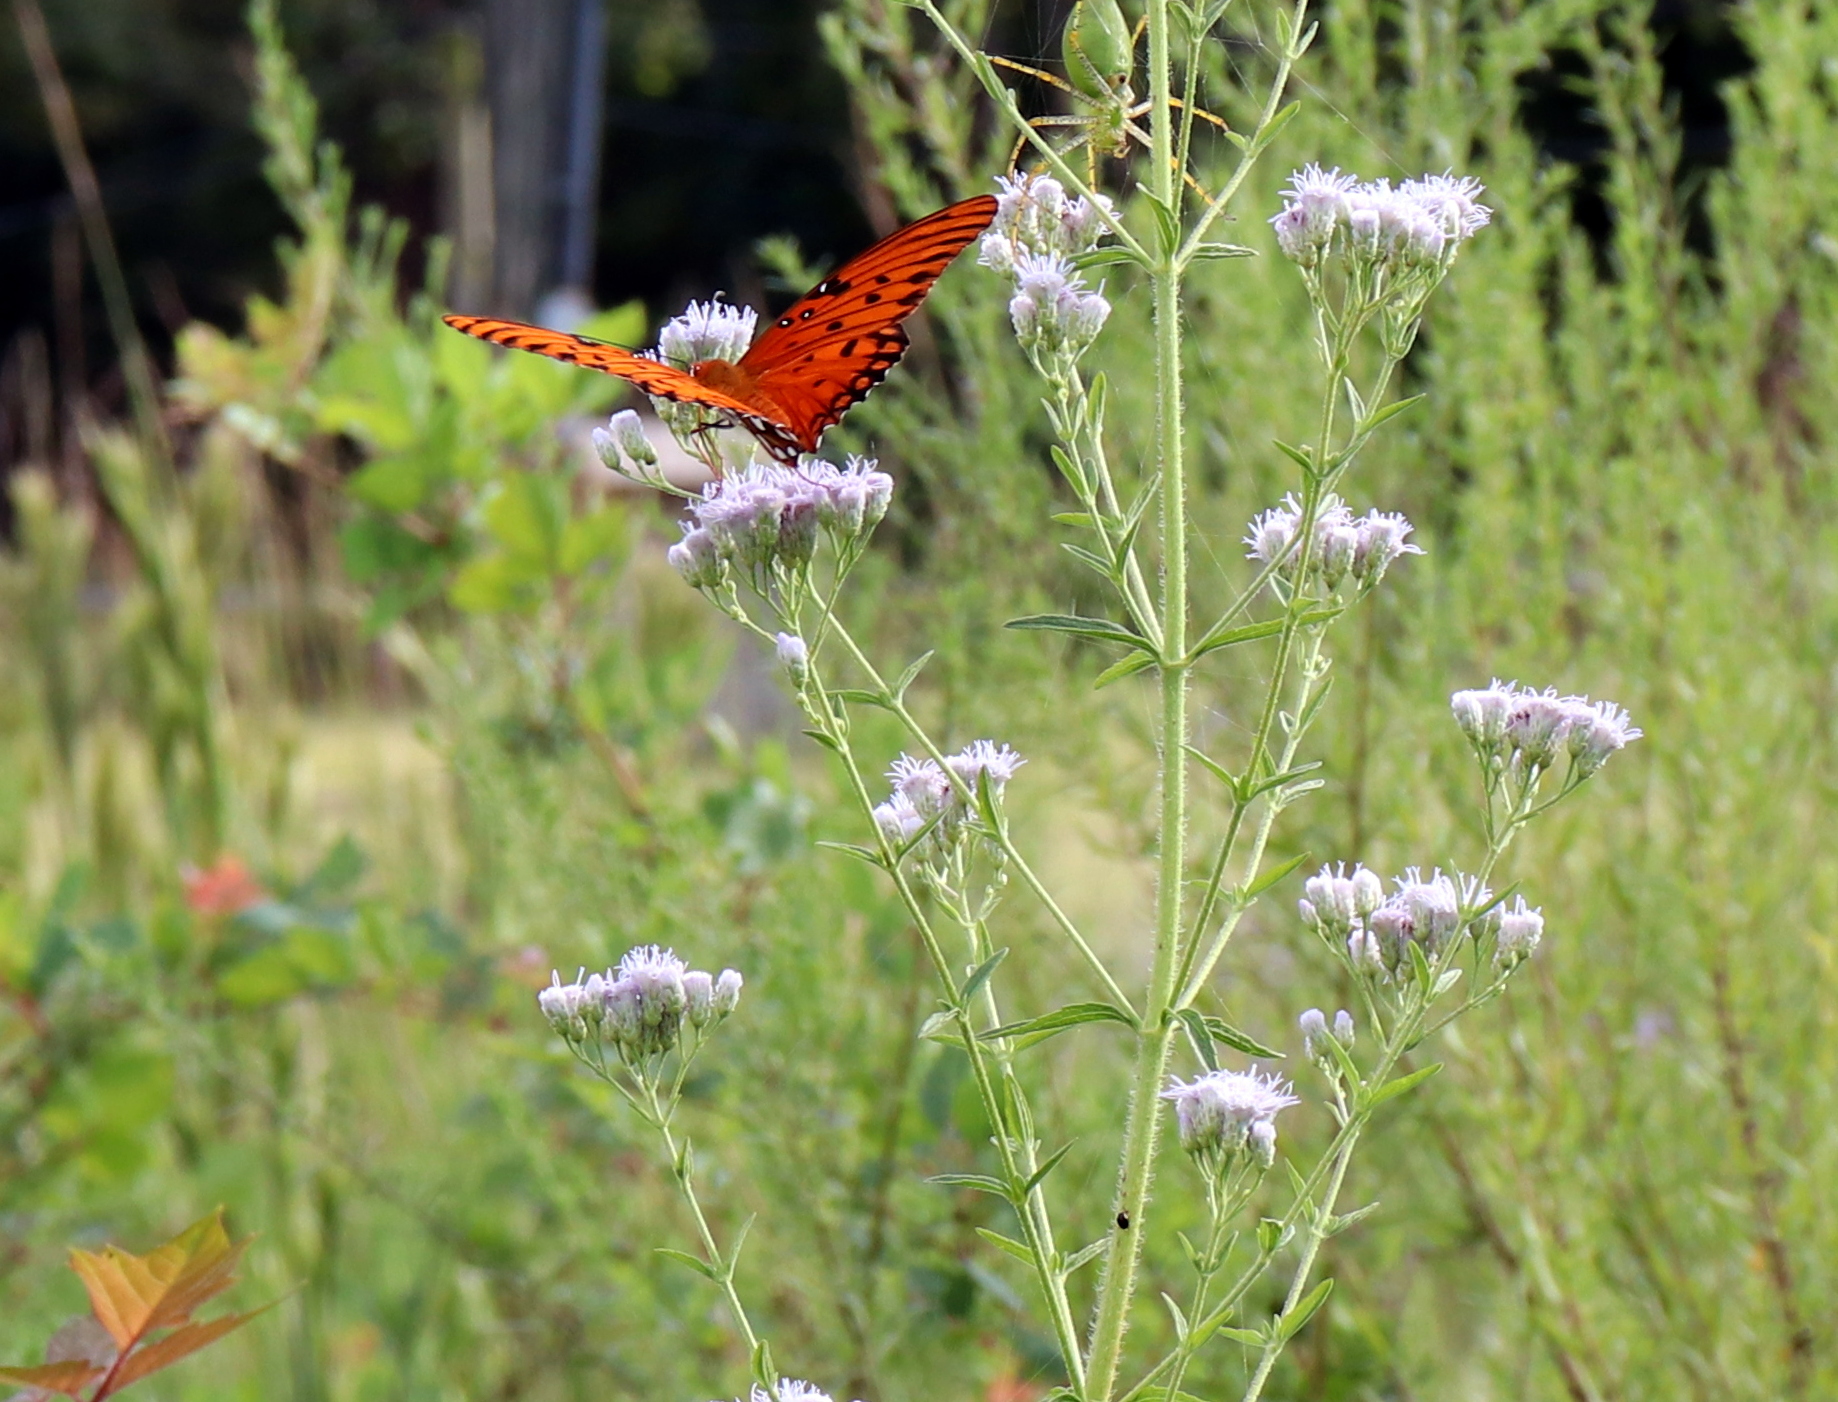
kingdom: Animalia
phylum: Arthropoda
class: Insecta
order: Lepidoptera
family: Nymphalidae
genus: Dione
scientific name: Dione vanillae
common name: Gulf fritillary
